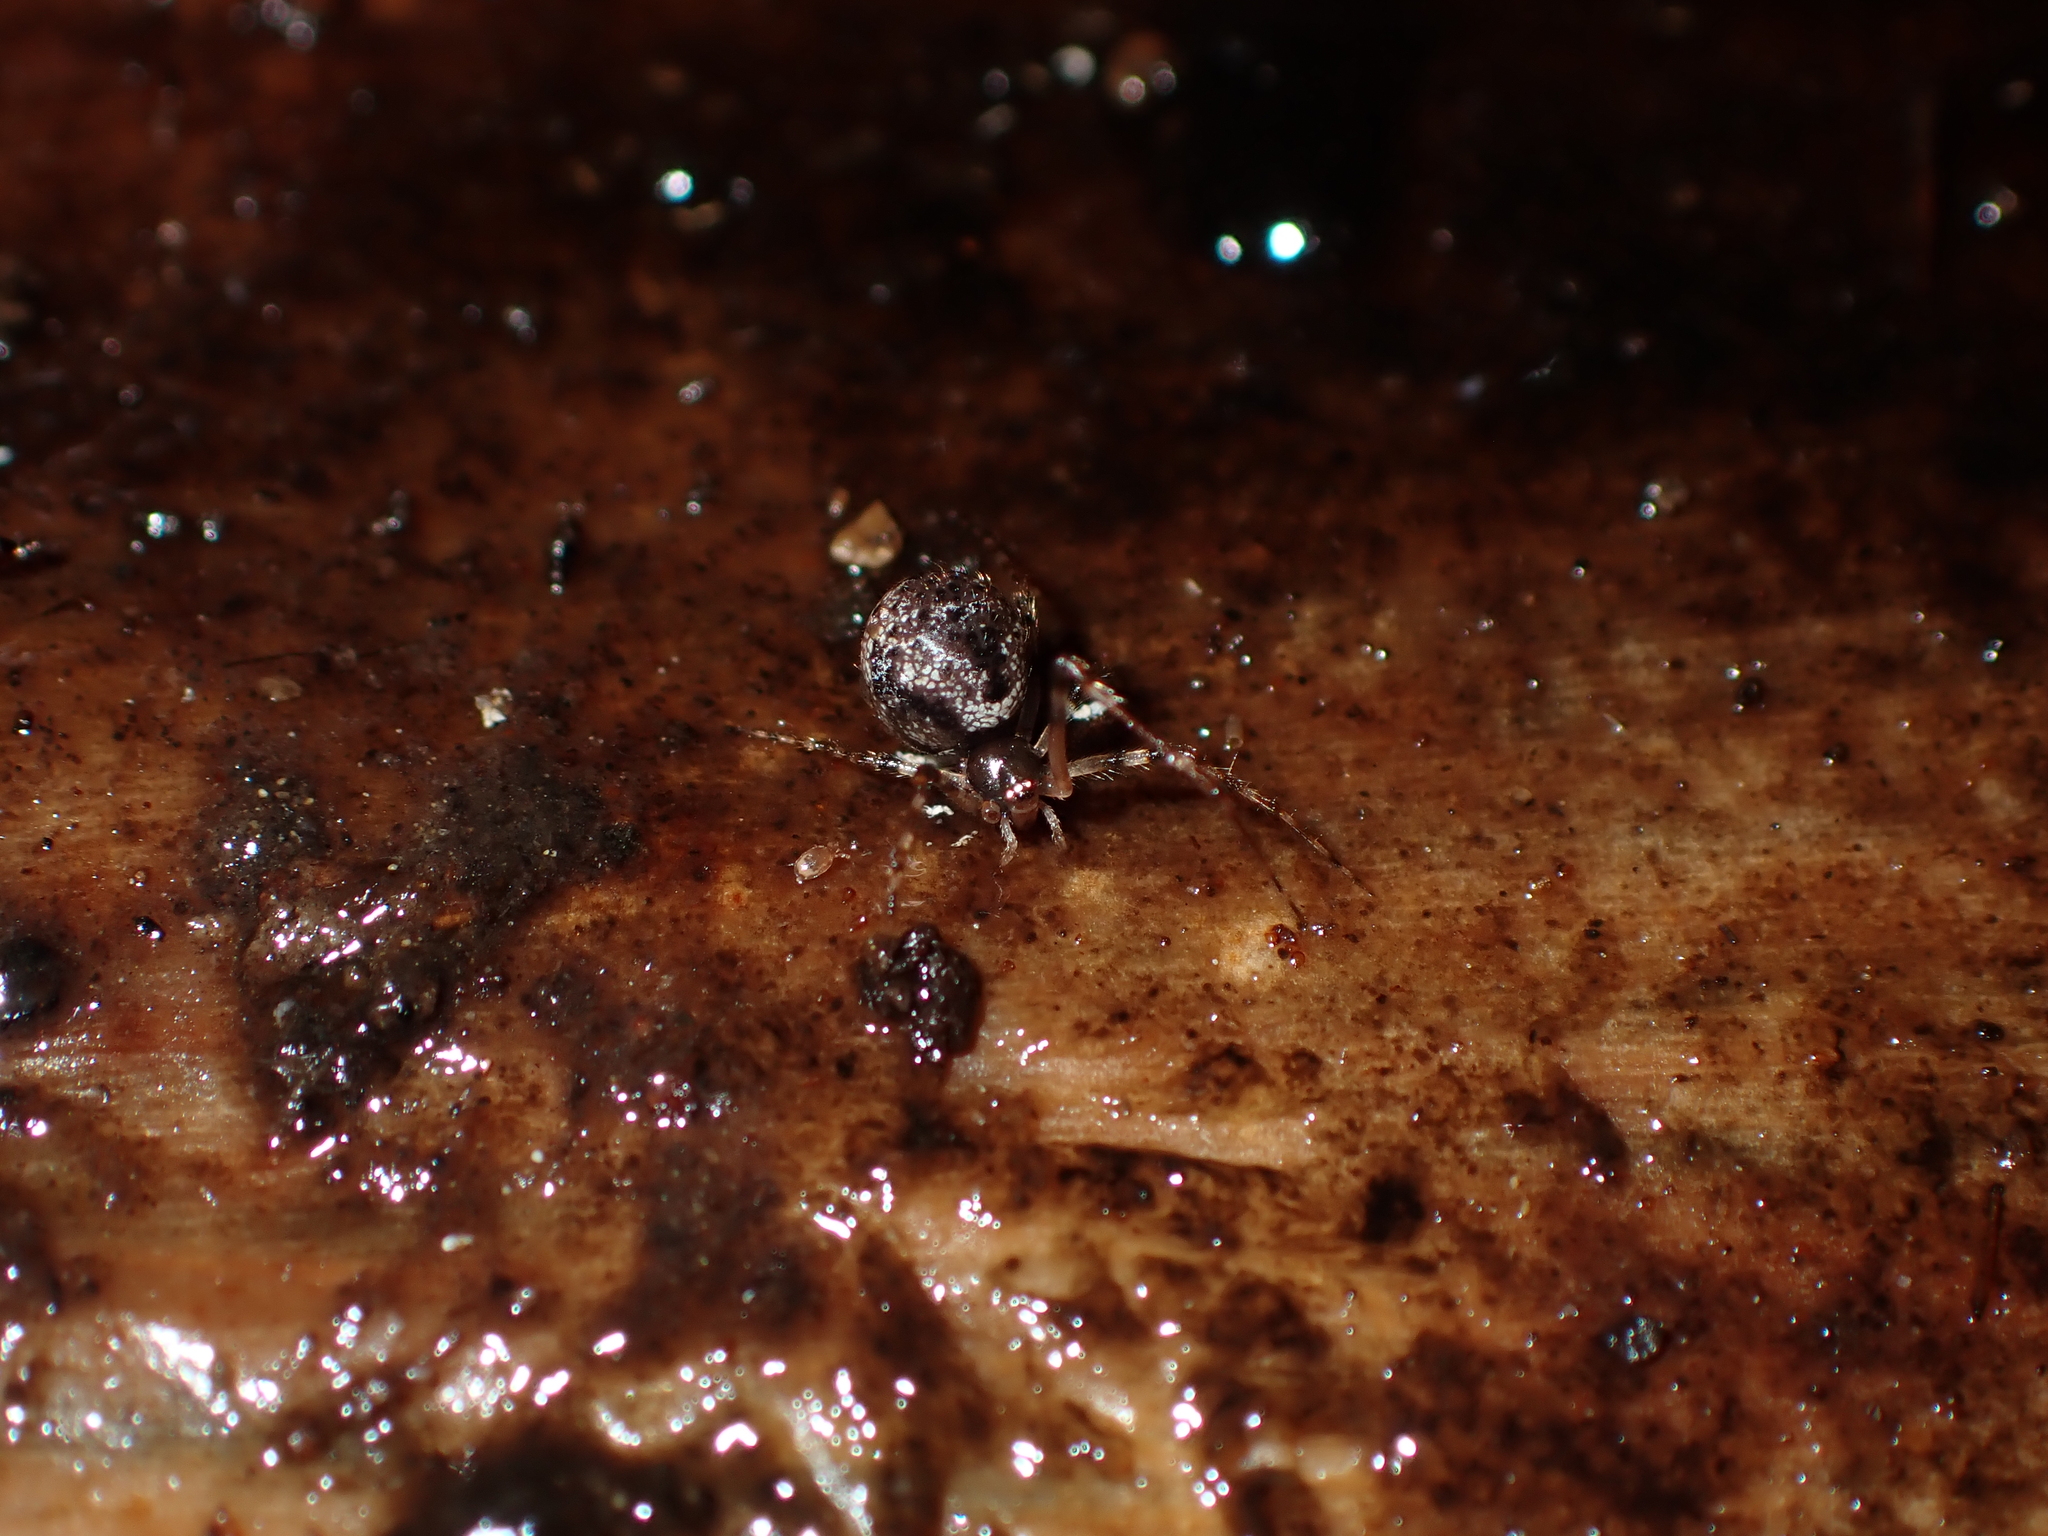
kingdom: Animalia
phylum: Arthropoda
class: Arachnida
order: Araneae
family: Theridiidae
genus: Cryptachaea
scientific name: Cryptachaea blattea
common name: Theridiid spider
